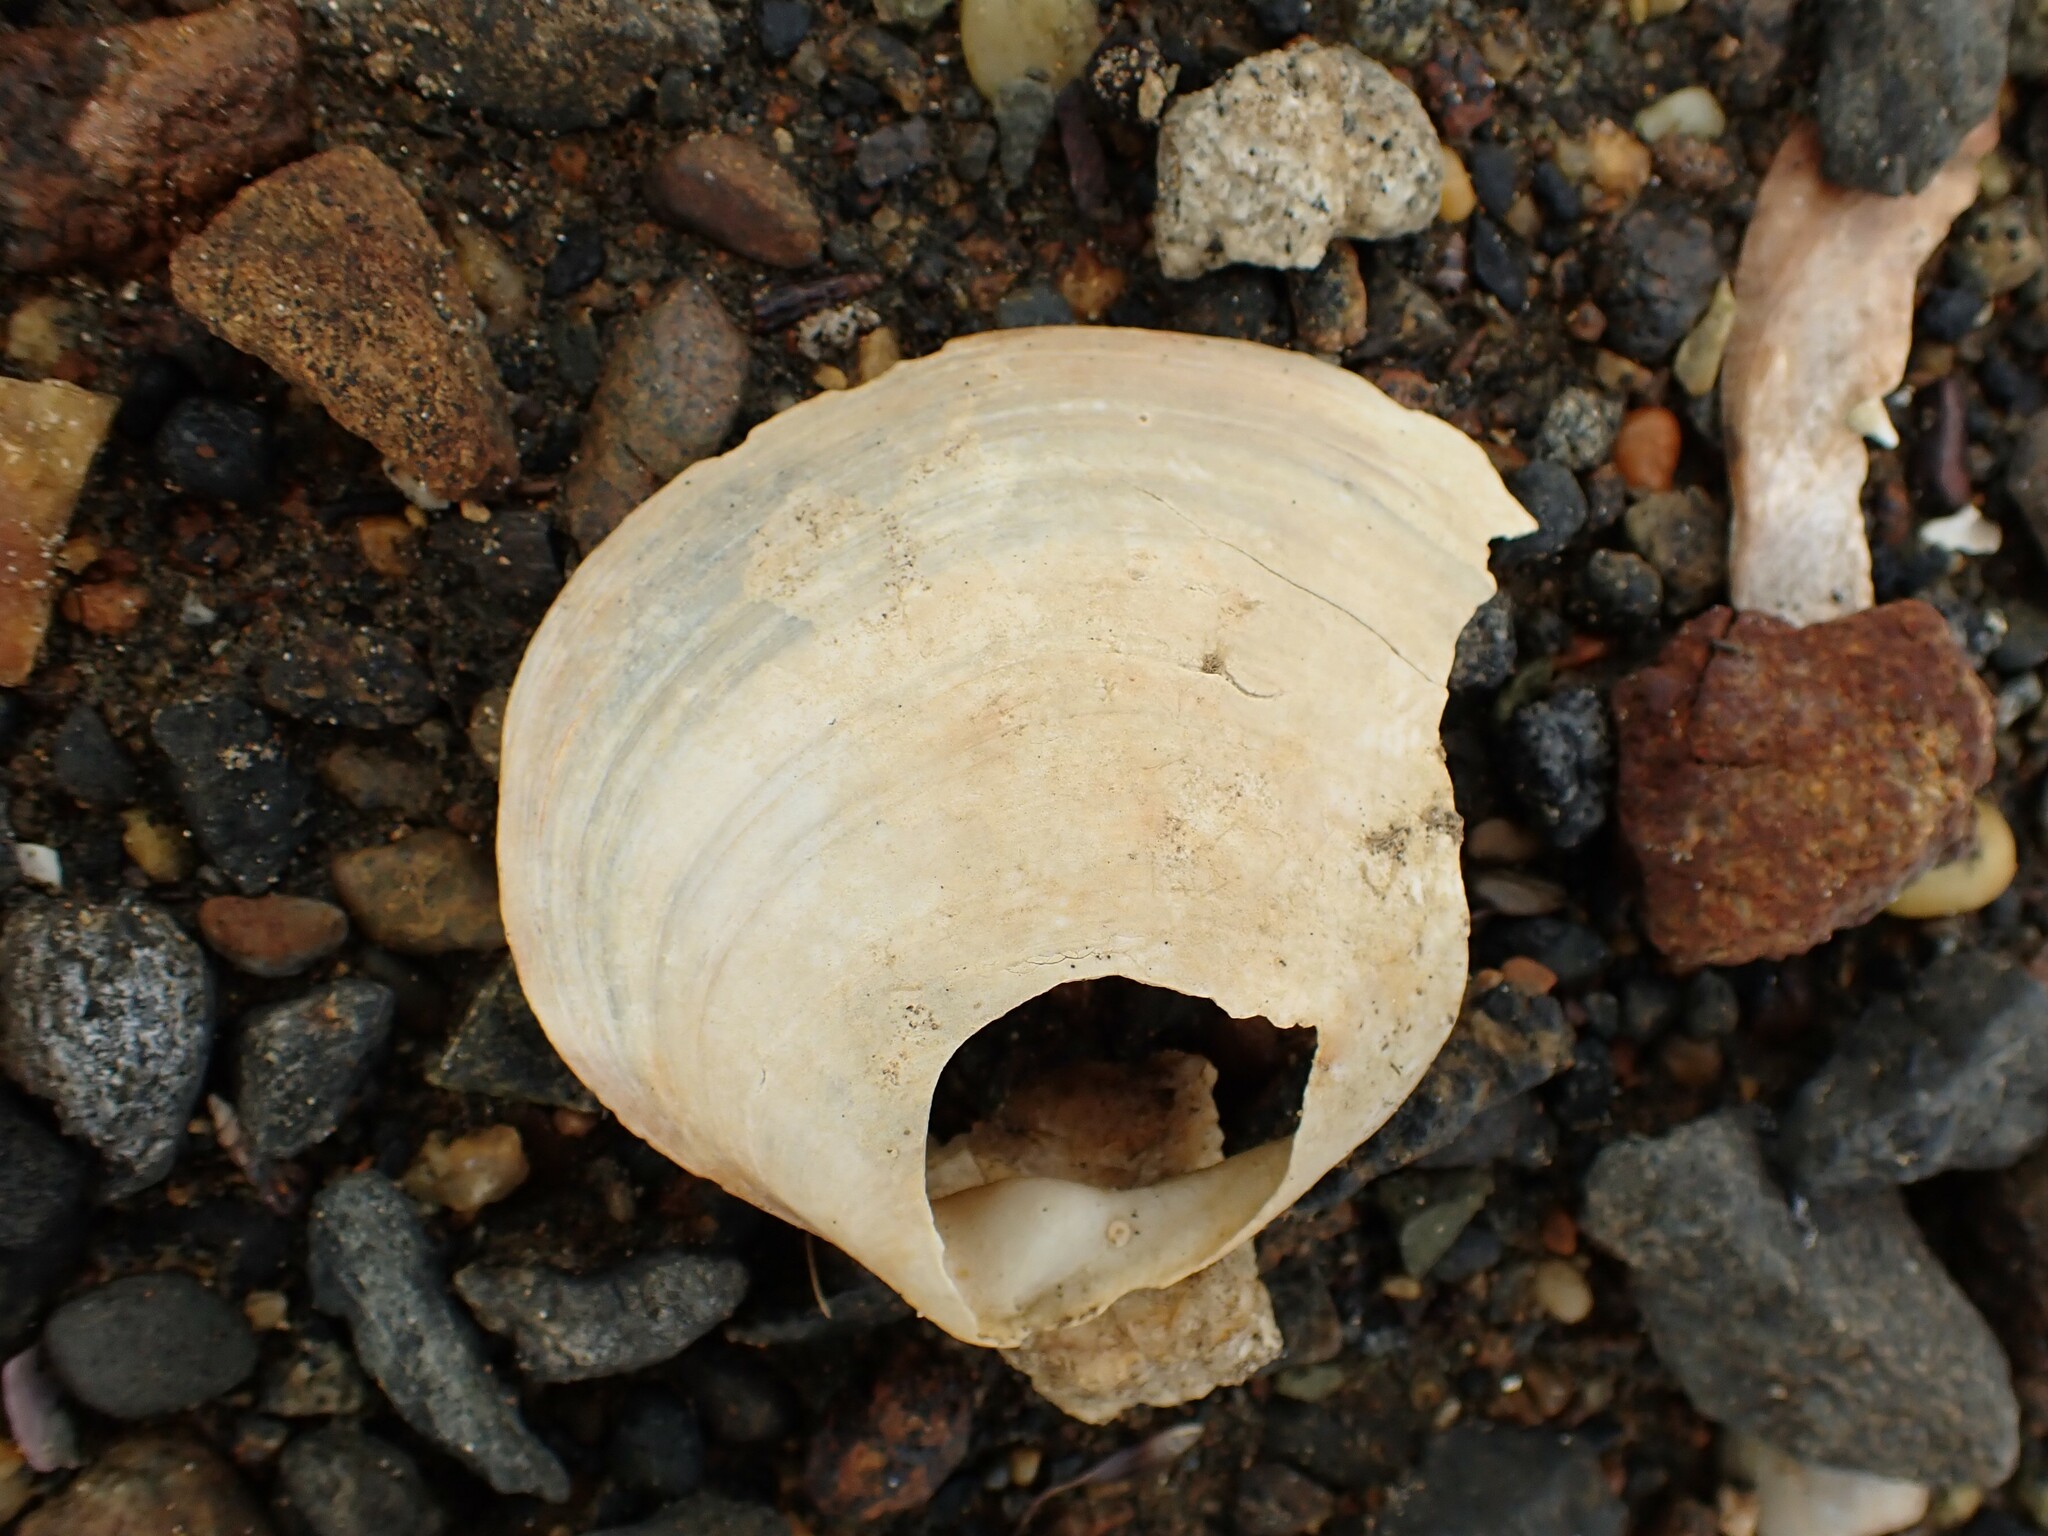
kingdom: Animalia
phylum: Mollusca
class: Bivalvia
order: Venerida
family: Mactridae
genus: Cyclomactra
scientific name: Cyclomactra ovata
